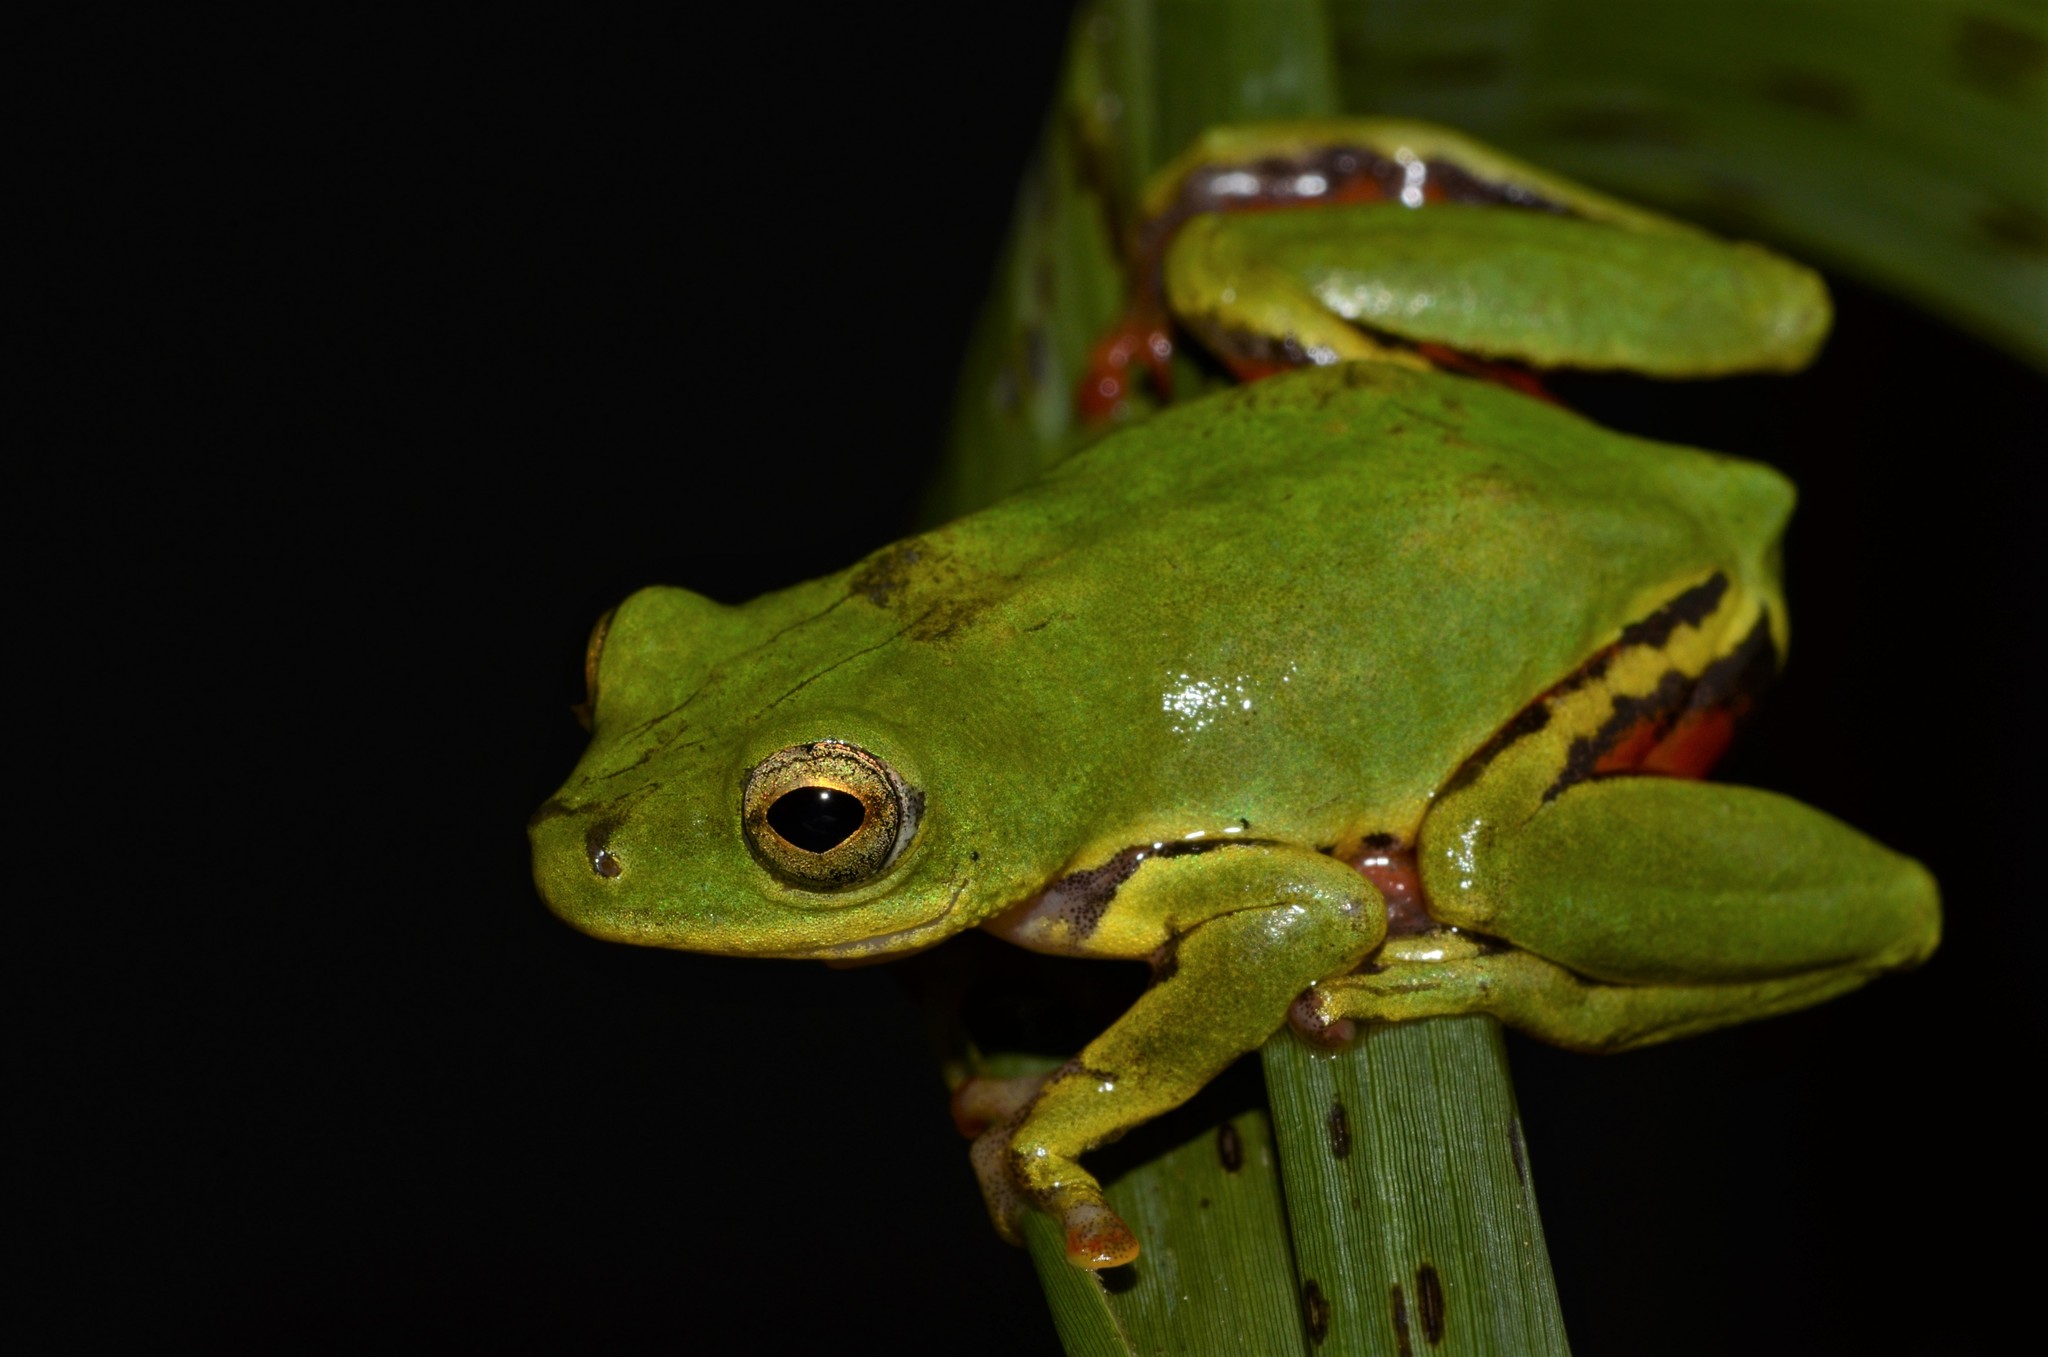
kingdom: Animalia
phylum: Chordata
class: Amphibia
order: Anura
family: Hyperoliidae
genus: Hyperolius
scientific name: Hyperolius olivaceus
